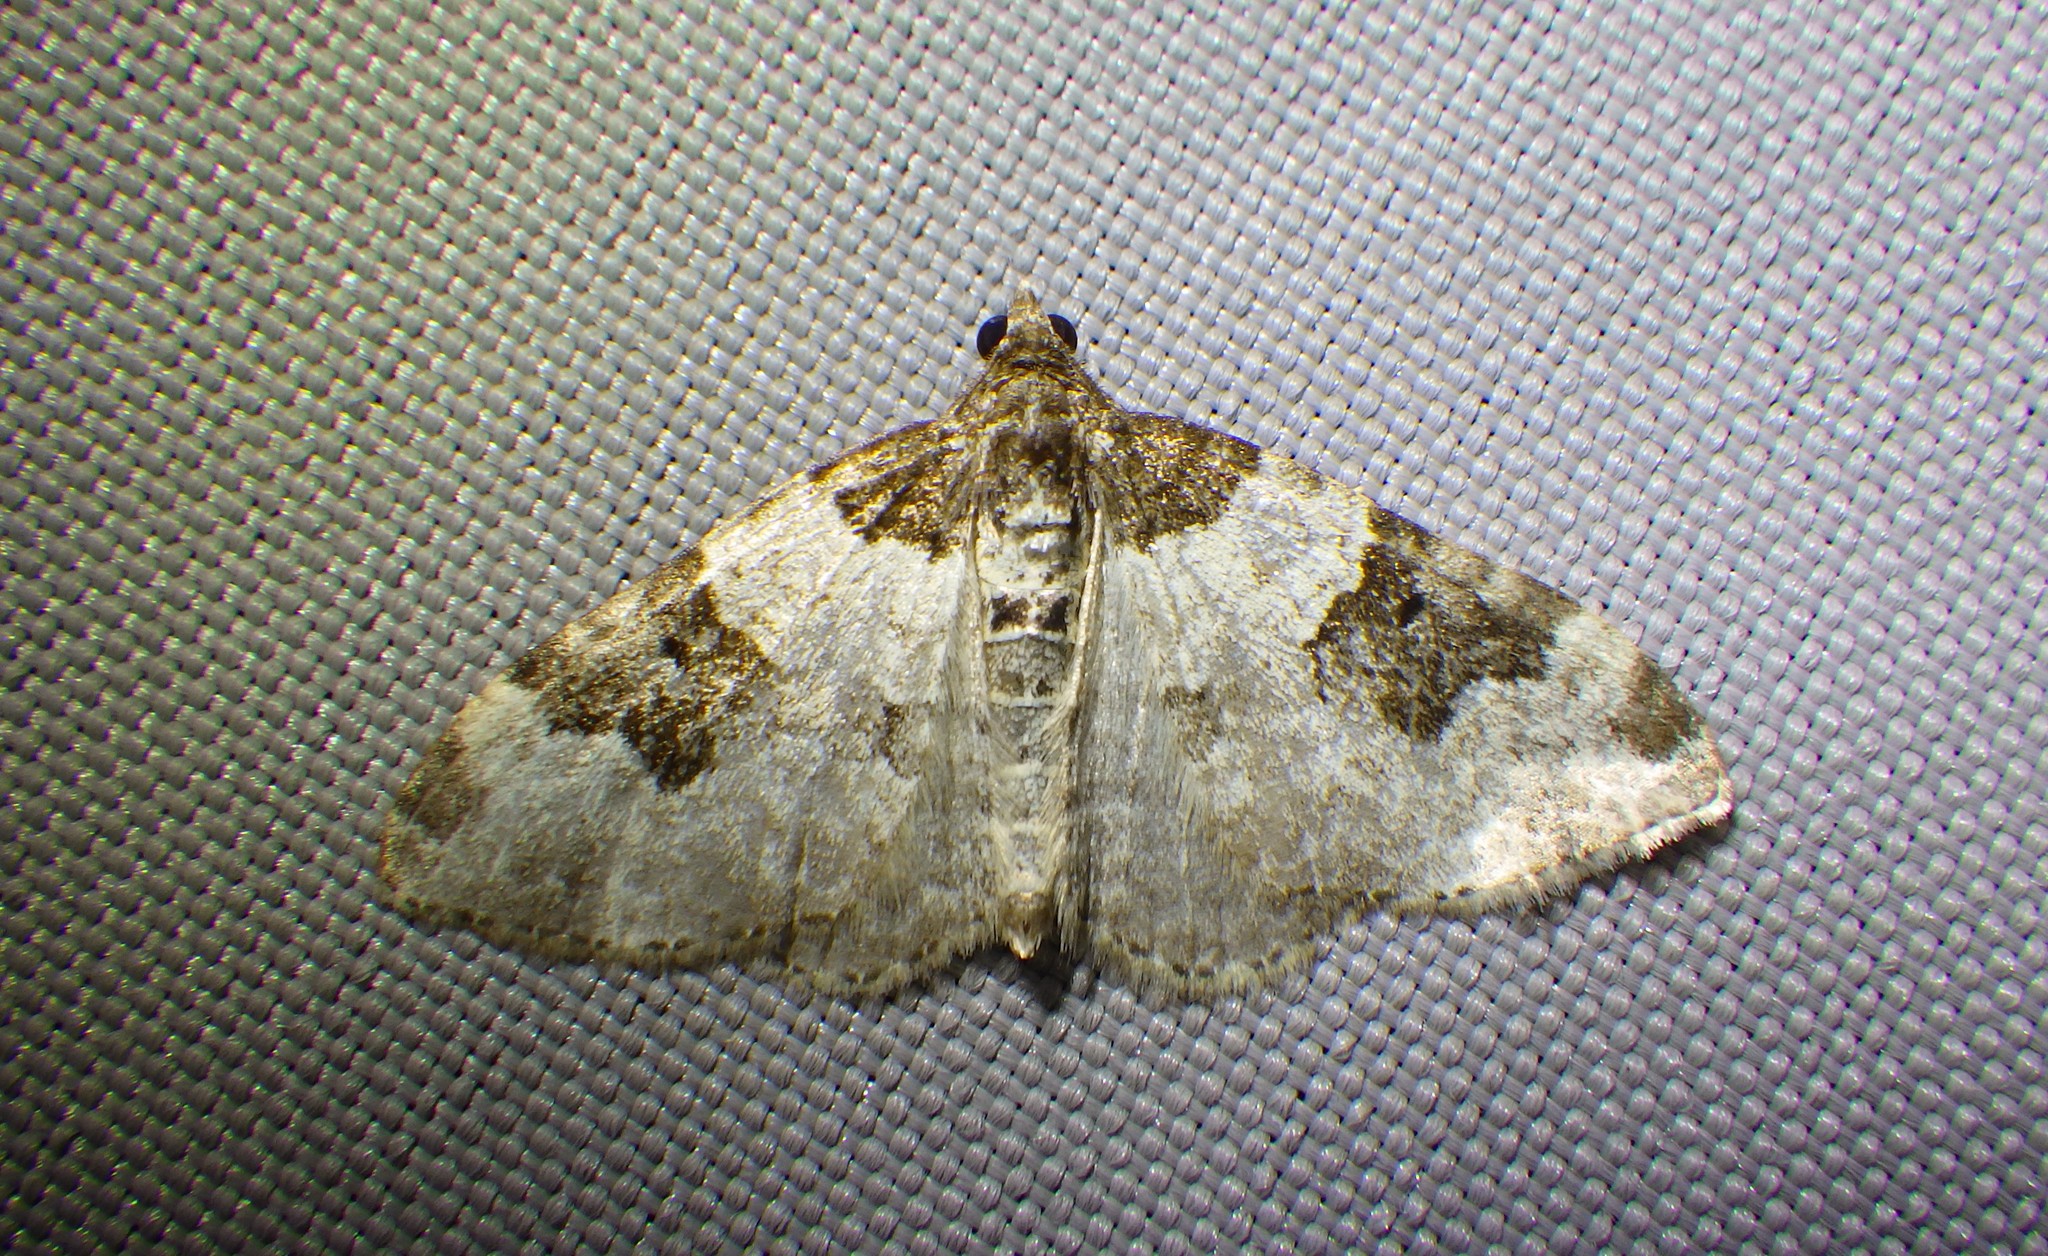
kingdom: Animalia
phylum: Arthropoda
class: Insecta
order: Lepidoptera
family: Geometridae
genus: Xanthorhoe
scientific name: Xanthorhoe fluctuata
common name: Garden carpet
